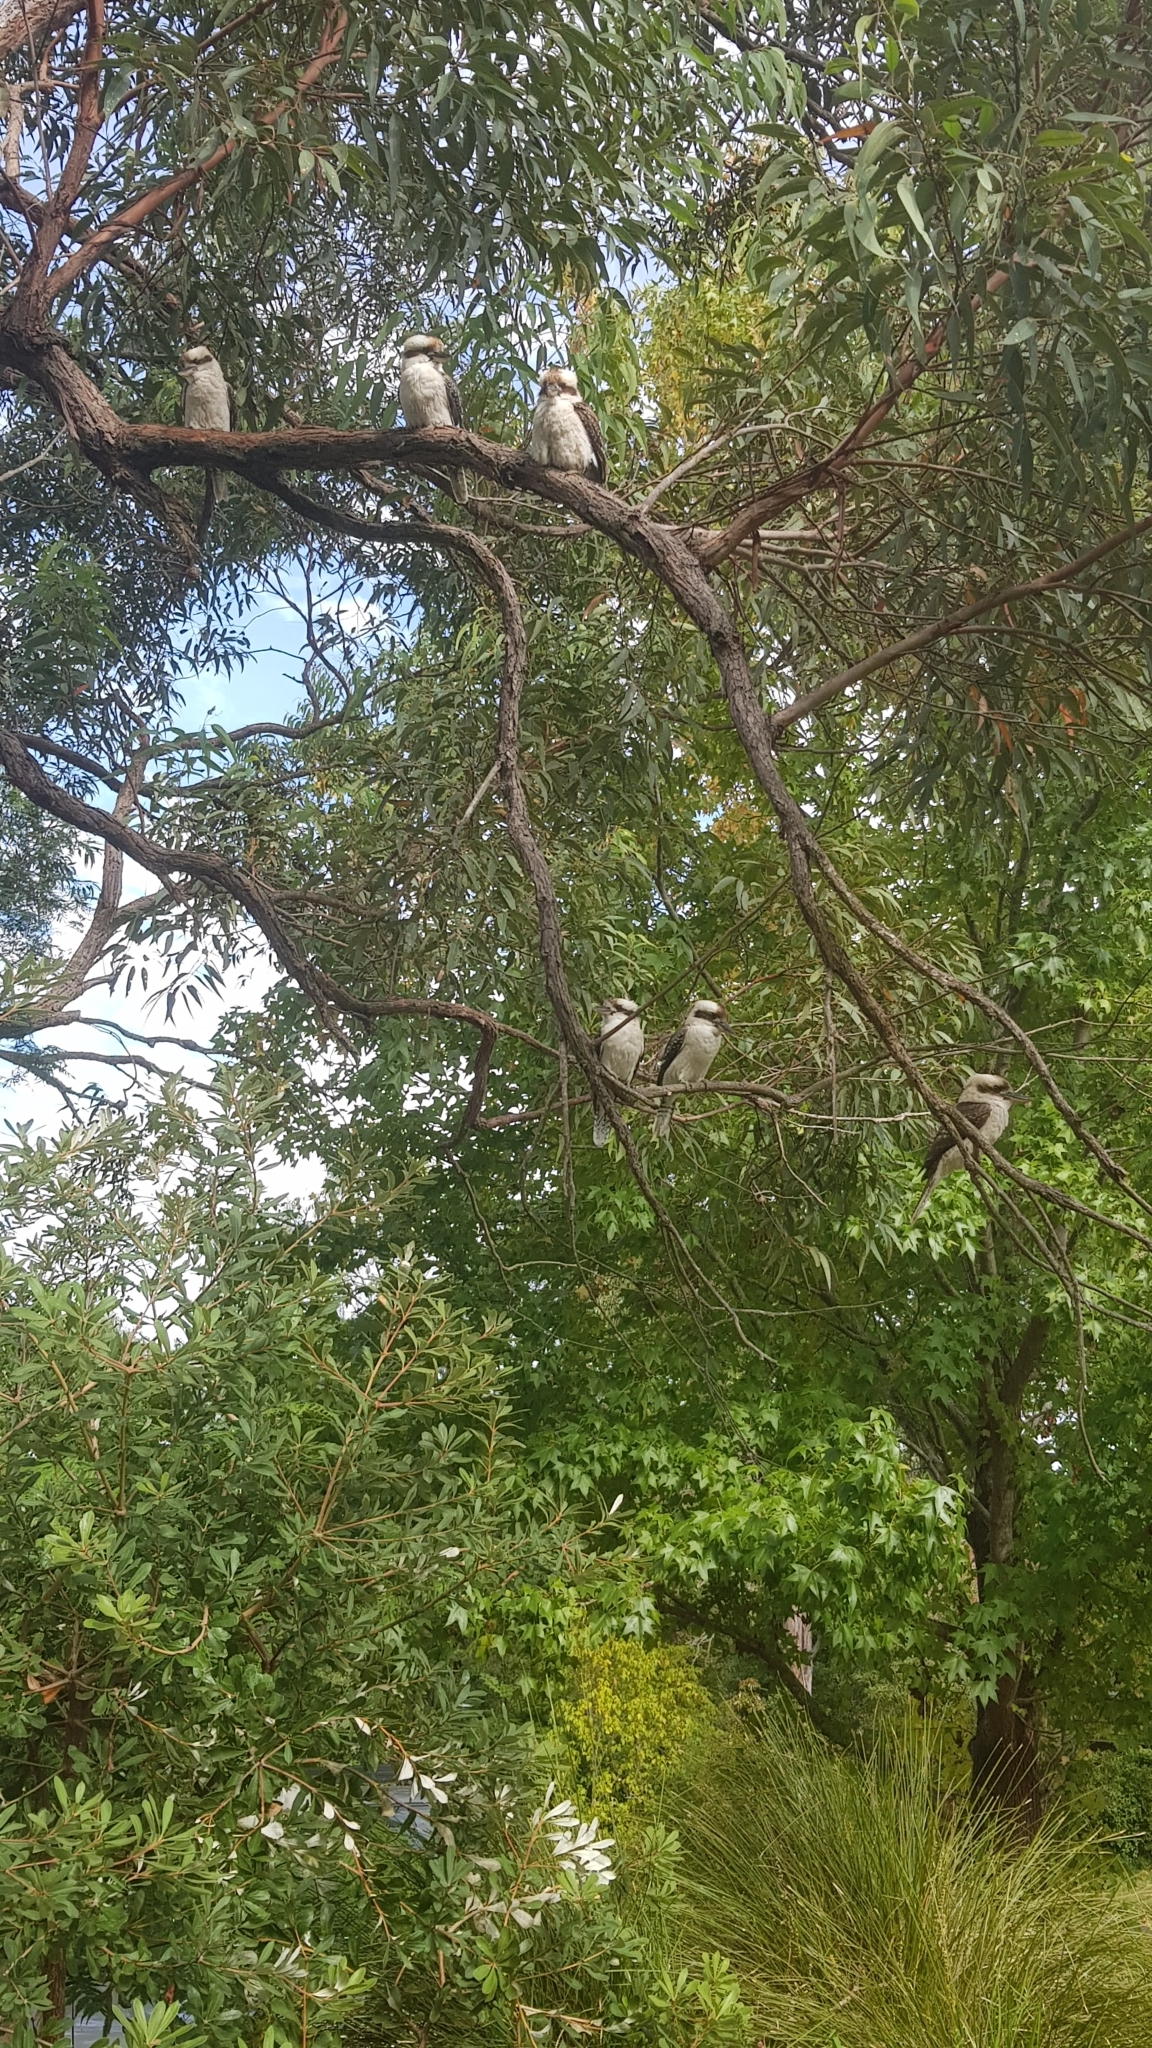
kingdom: Animalia
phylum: Chordata
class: Aves
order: Coraciiformes
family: Alcedinidae
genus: Dacelo
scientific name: Dacelo novaeguineae
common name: Laughing kookaburra
